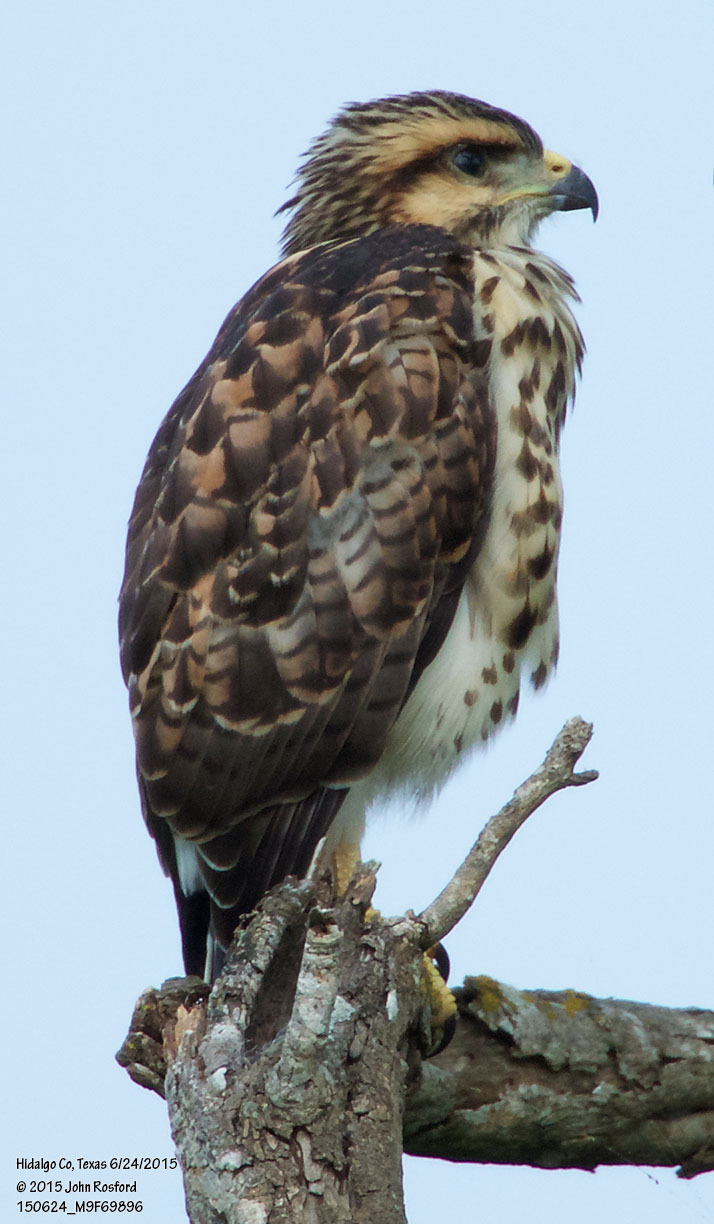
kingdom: Animalia
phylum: Chordata
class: Aves
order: Accipitriformes
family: Accipitridae
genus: Buteo
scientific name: Buteo nitidus
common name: Grey-lined hawk
